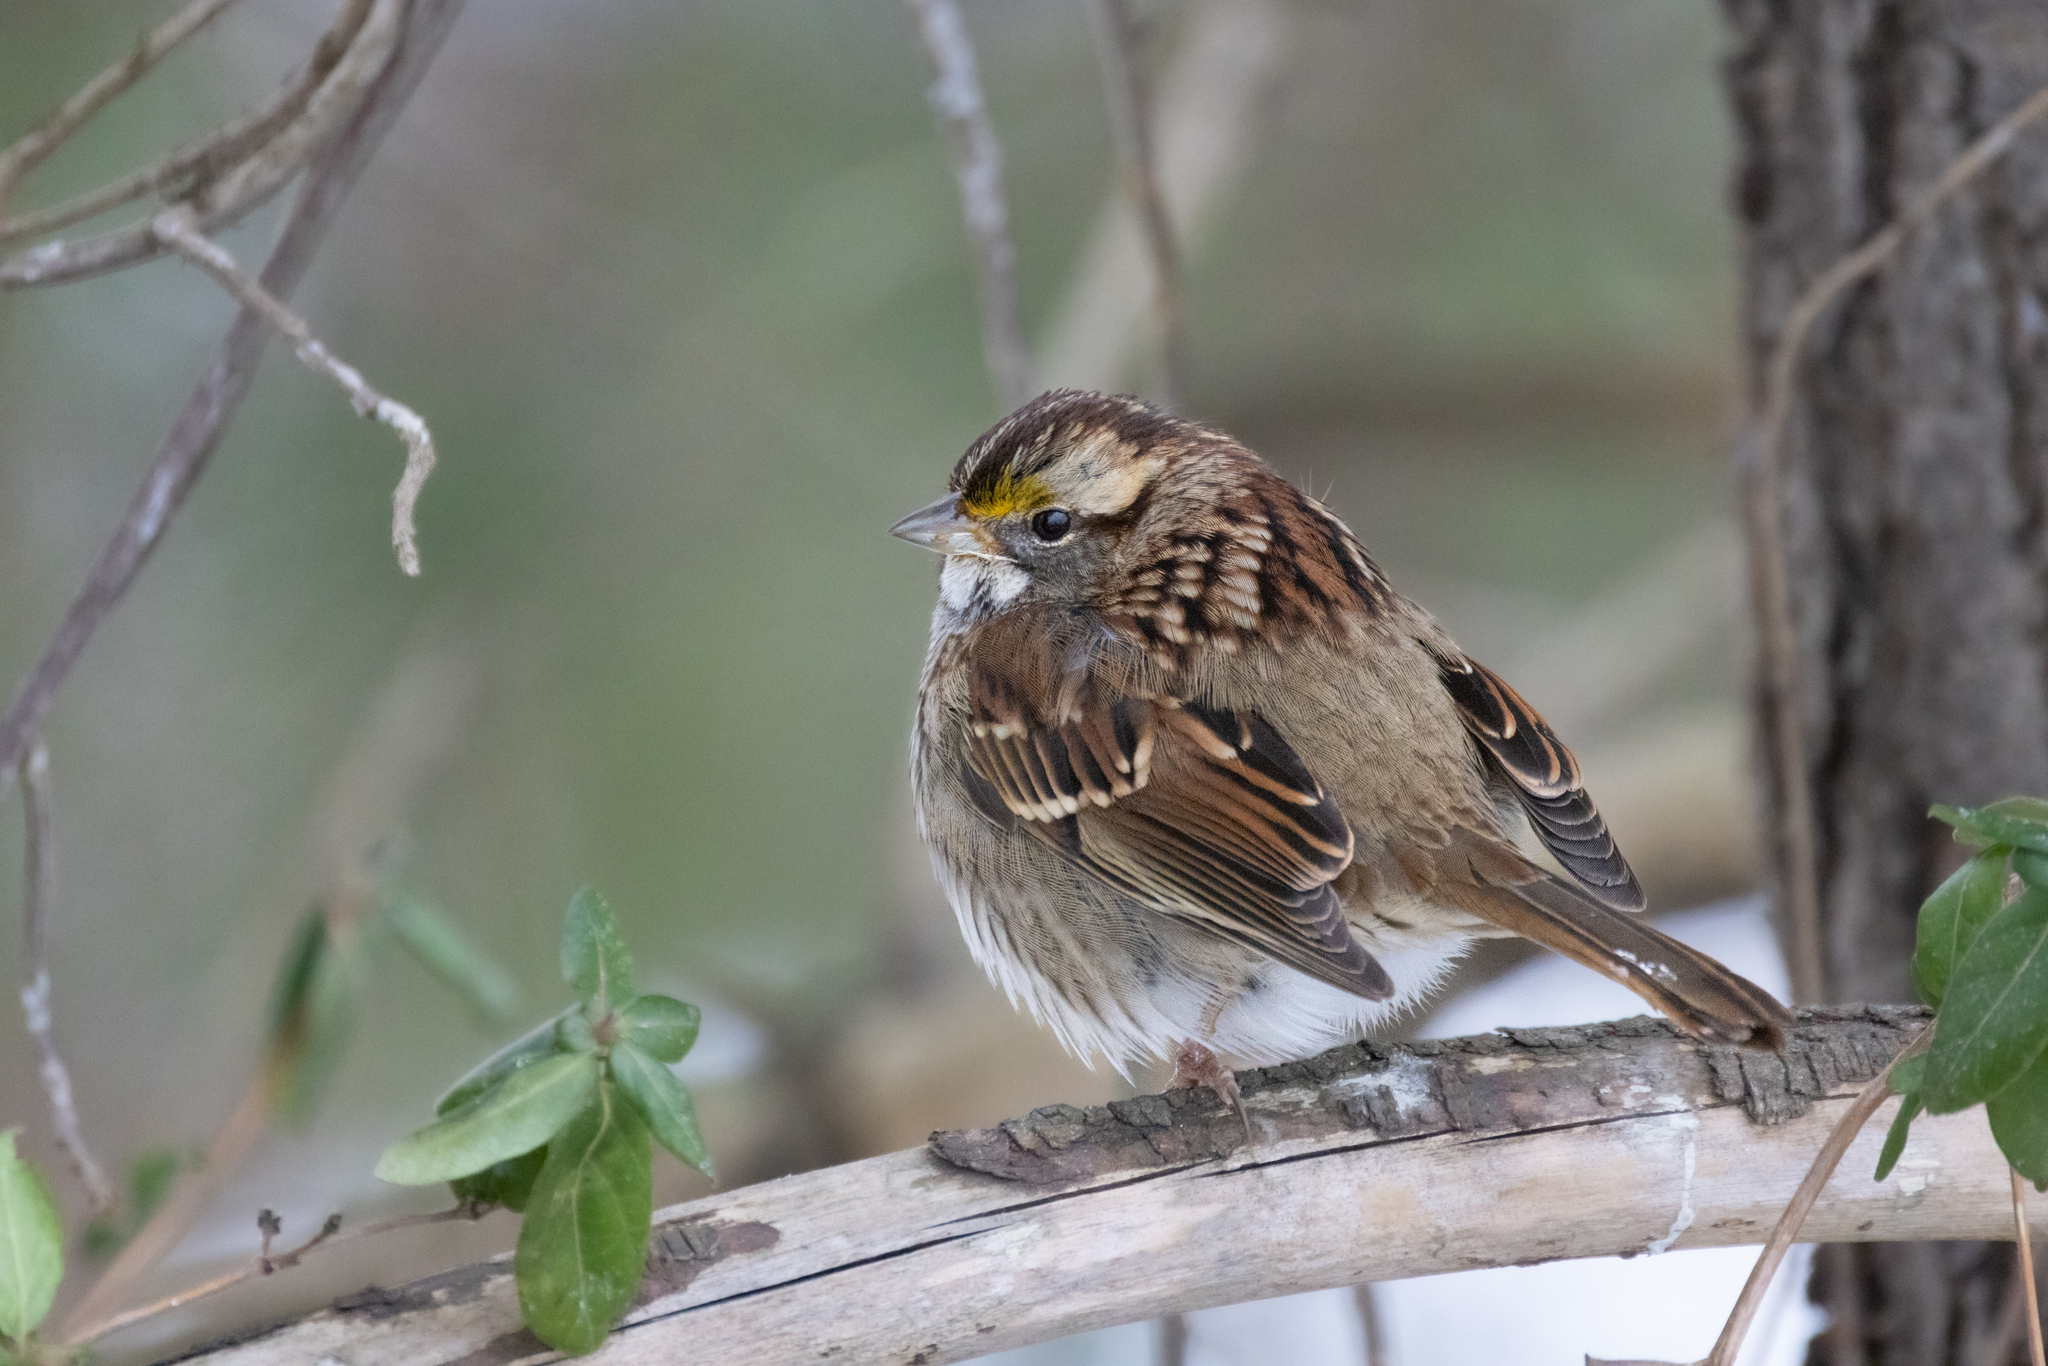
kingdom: Animalia
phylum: Chordata
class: Aves
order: Passeriformes
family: Passerellidae
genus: Zonotrichia
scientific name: Zonotrichia albicollis
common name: White-throated sparrow
